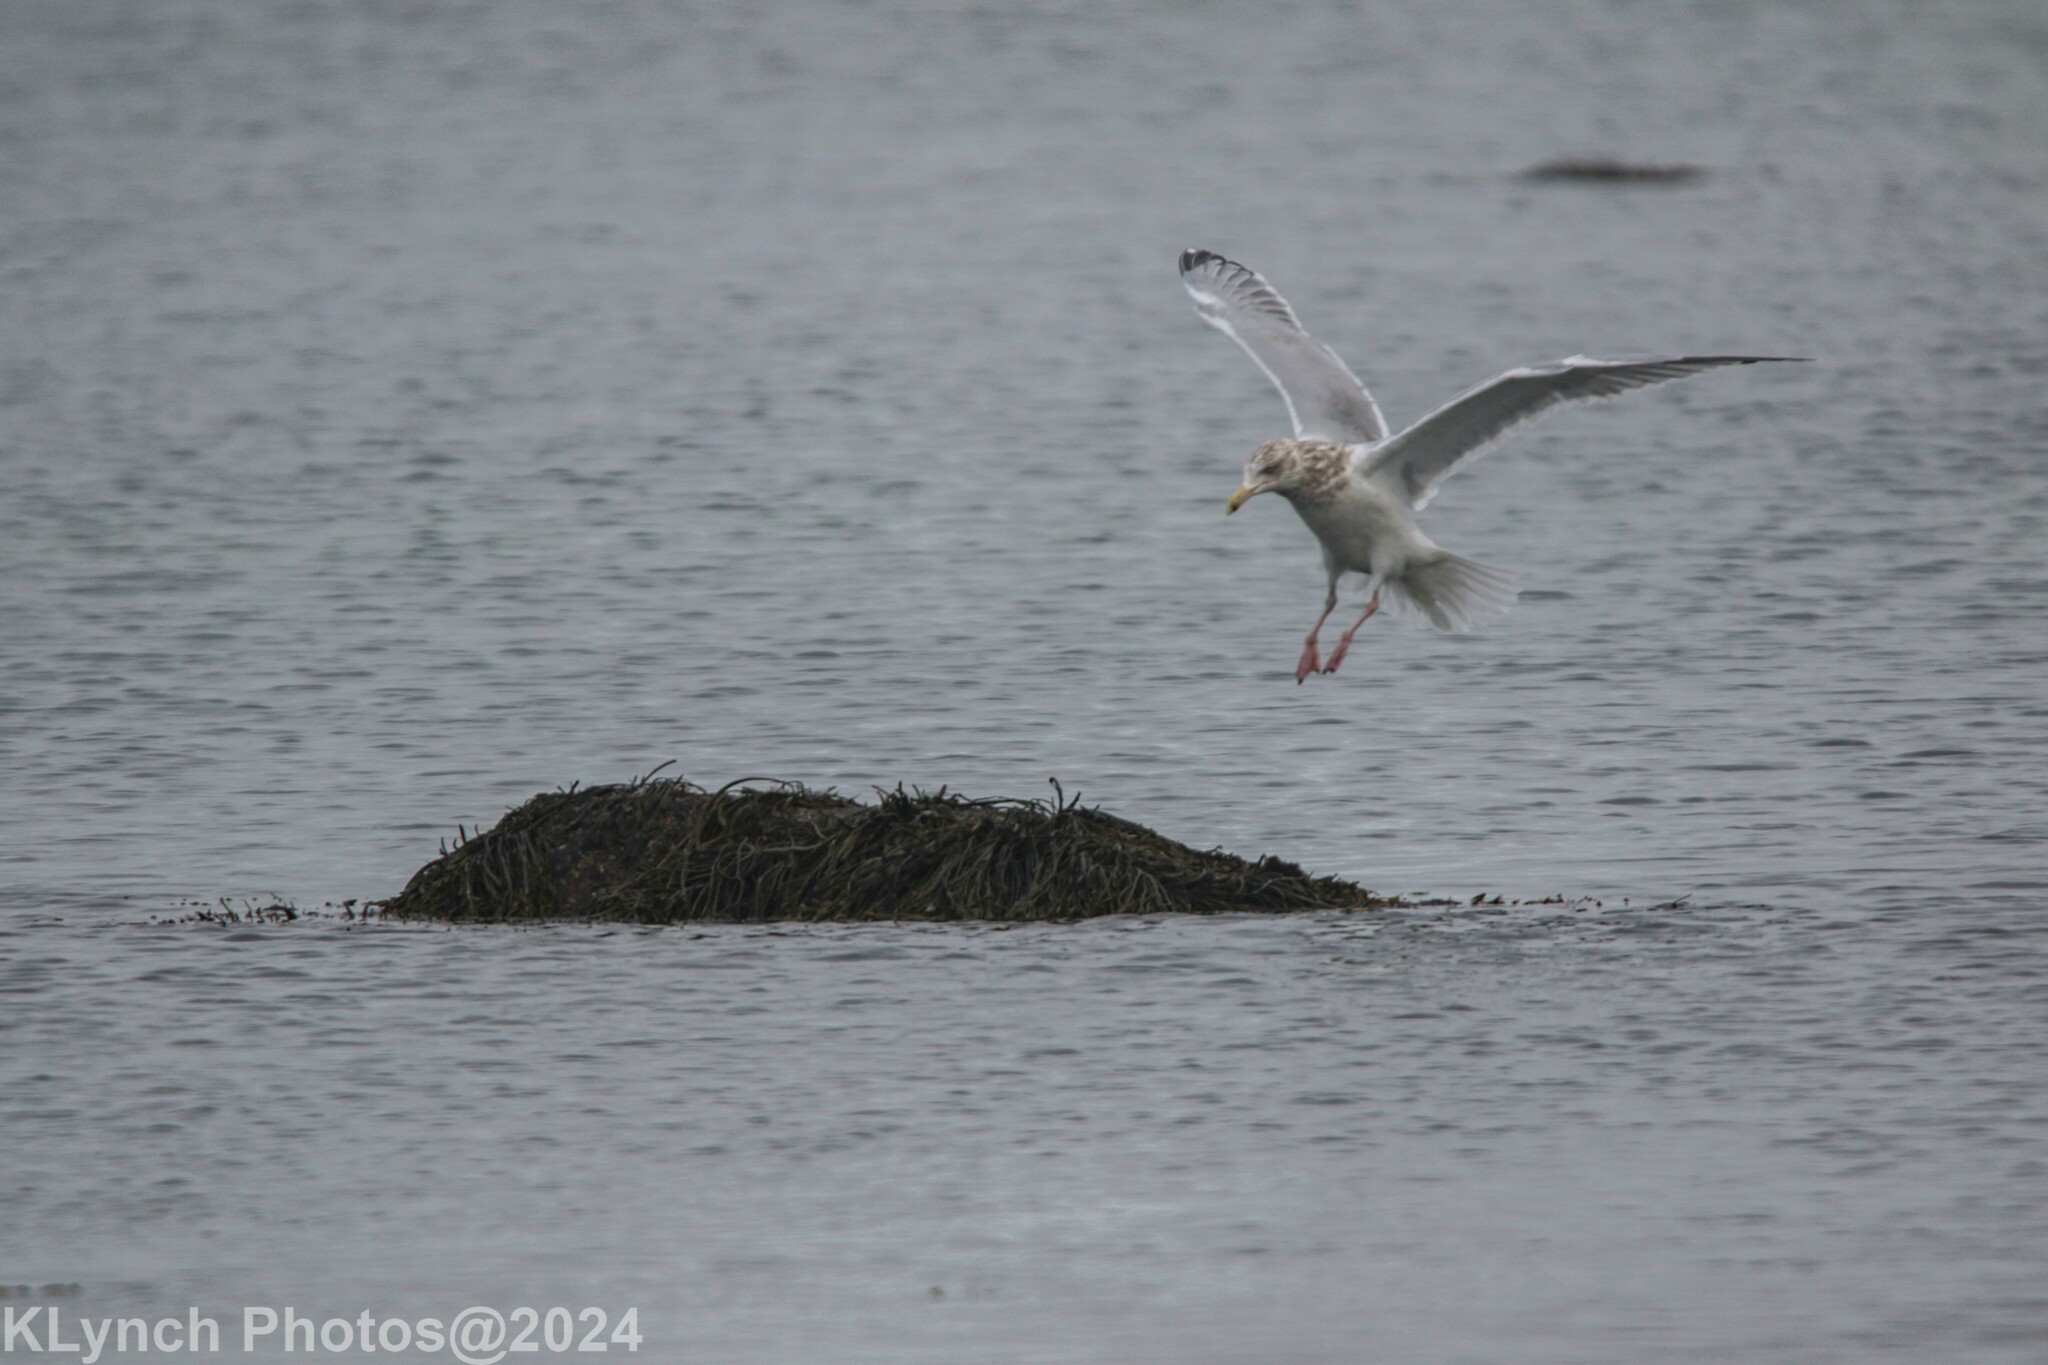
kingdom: Animalia
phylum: Chordata
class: Aves
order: Charadriiformes
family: Laridae
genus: Larus
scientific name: Larus argentatus
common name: Herring gull
